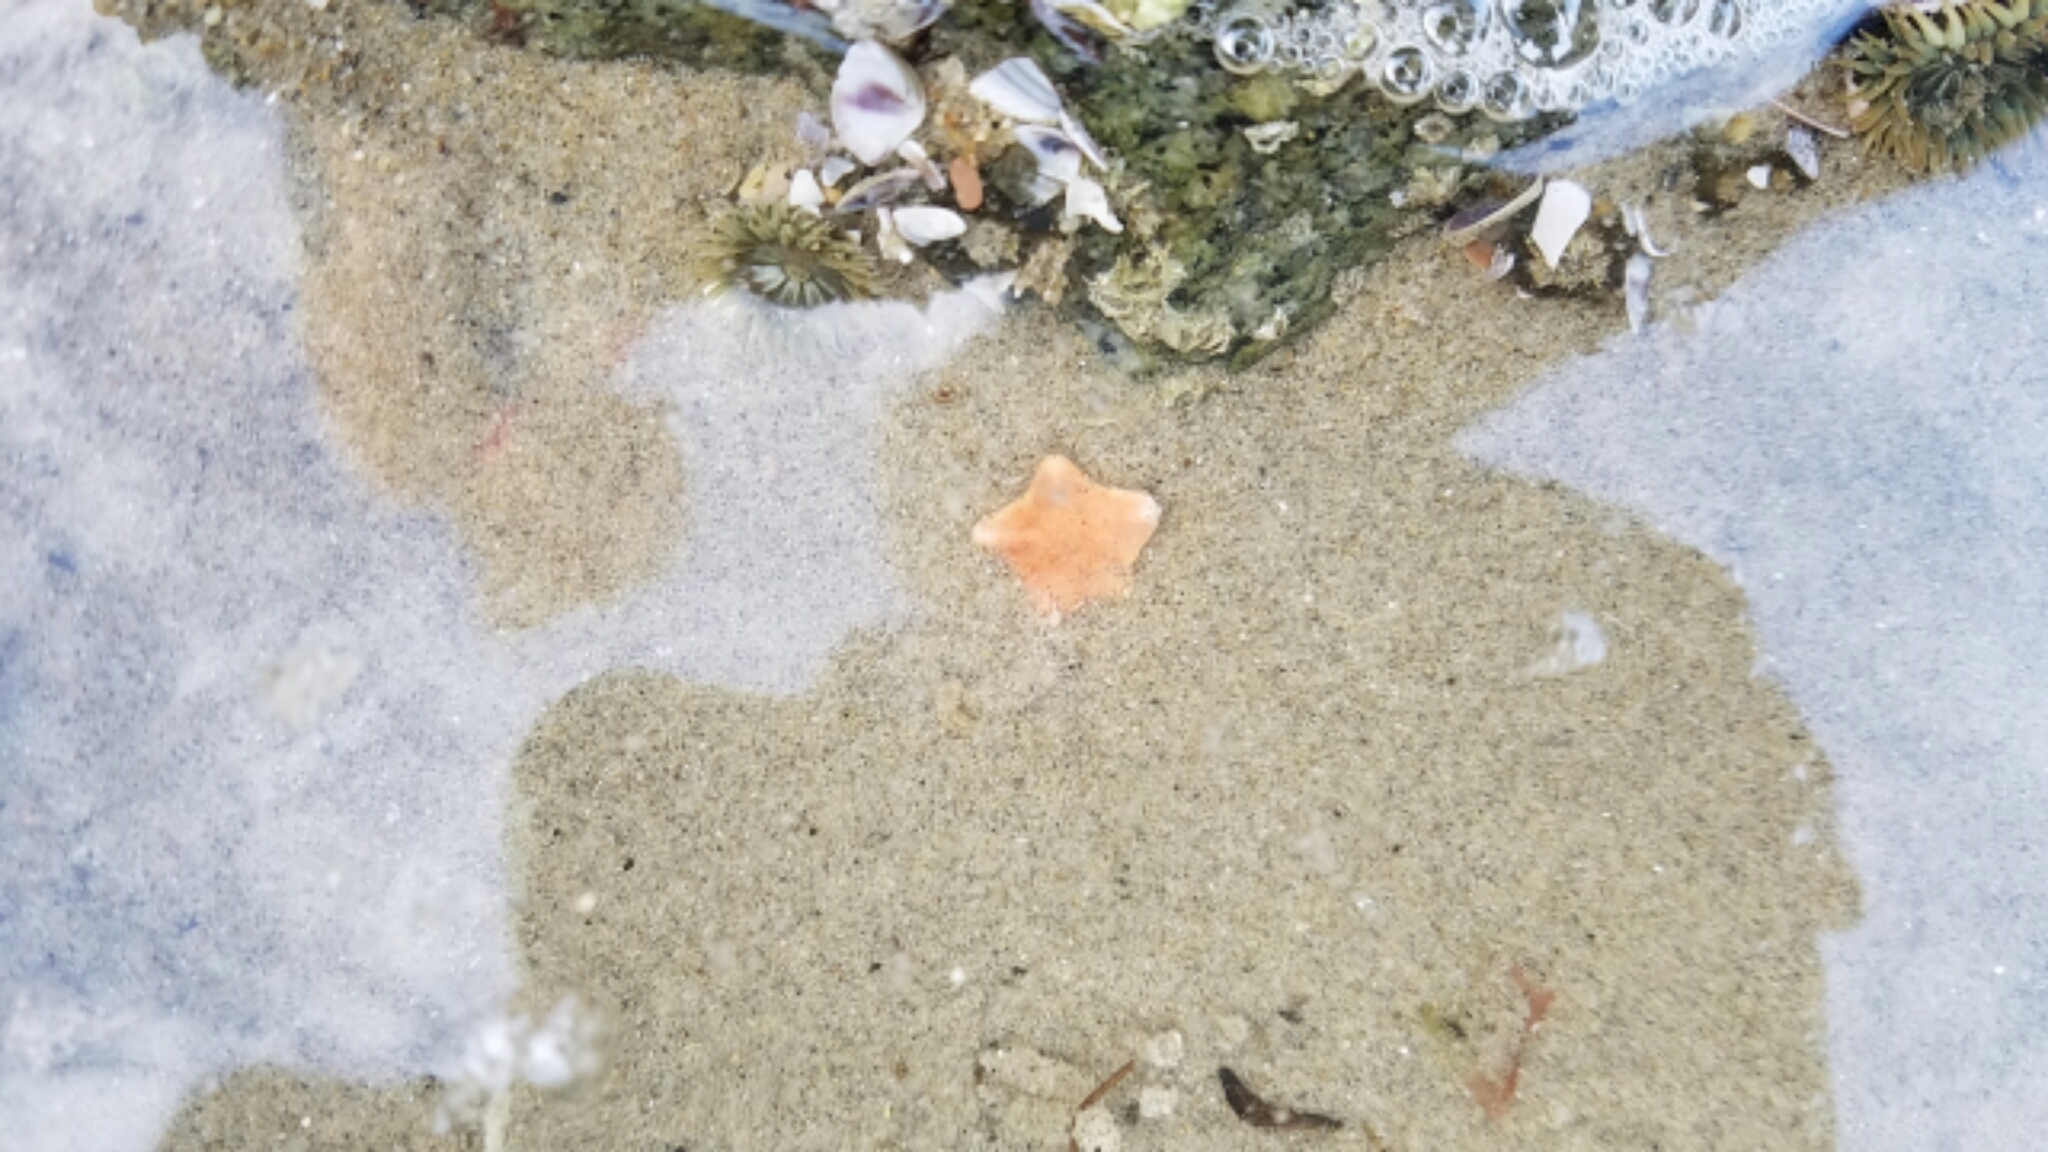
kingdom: Animalia
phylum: Echinodermata
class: Asteroidea
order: Valvatida
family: Asterinidae
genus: Patiria
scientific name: Patiria miniata
